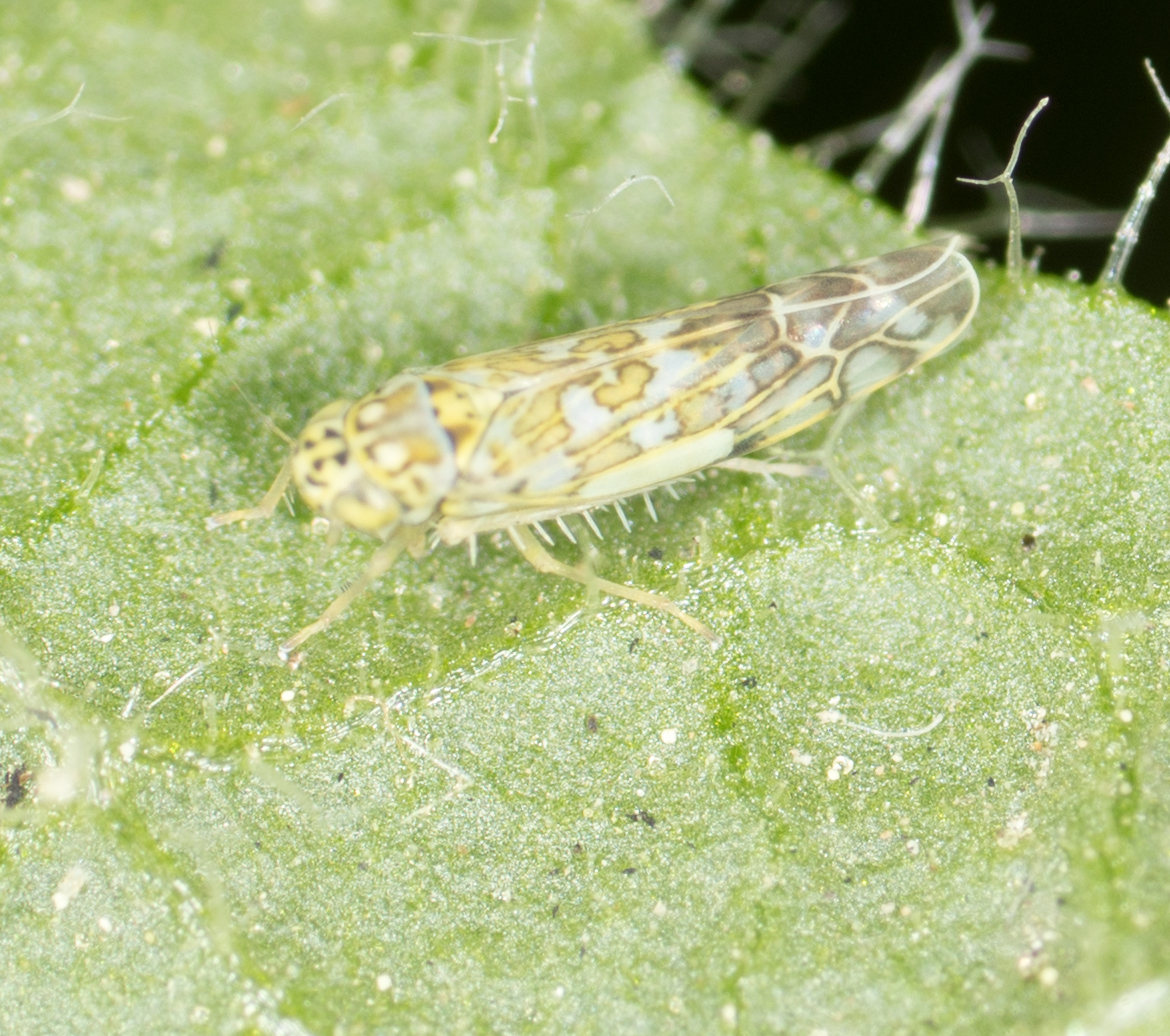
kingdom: Animalia
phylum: Arthropoda
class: Insecta
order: Hemiptera
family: Cicadellidae
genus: Eupteryx
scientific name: Eupteryx decemnotata
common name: Ligurian leafhopper
